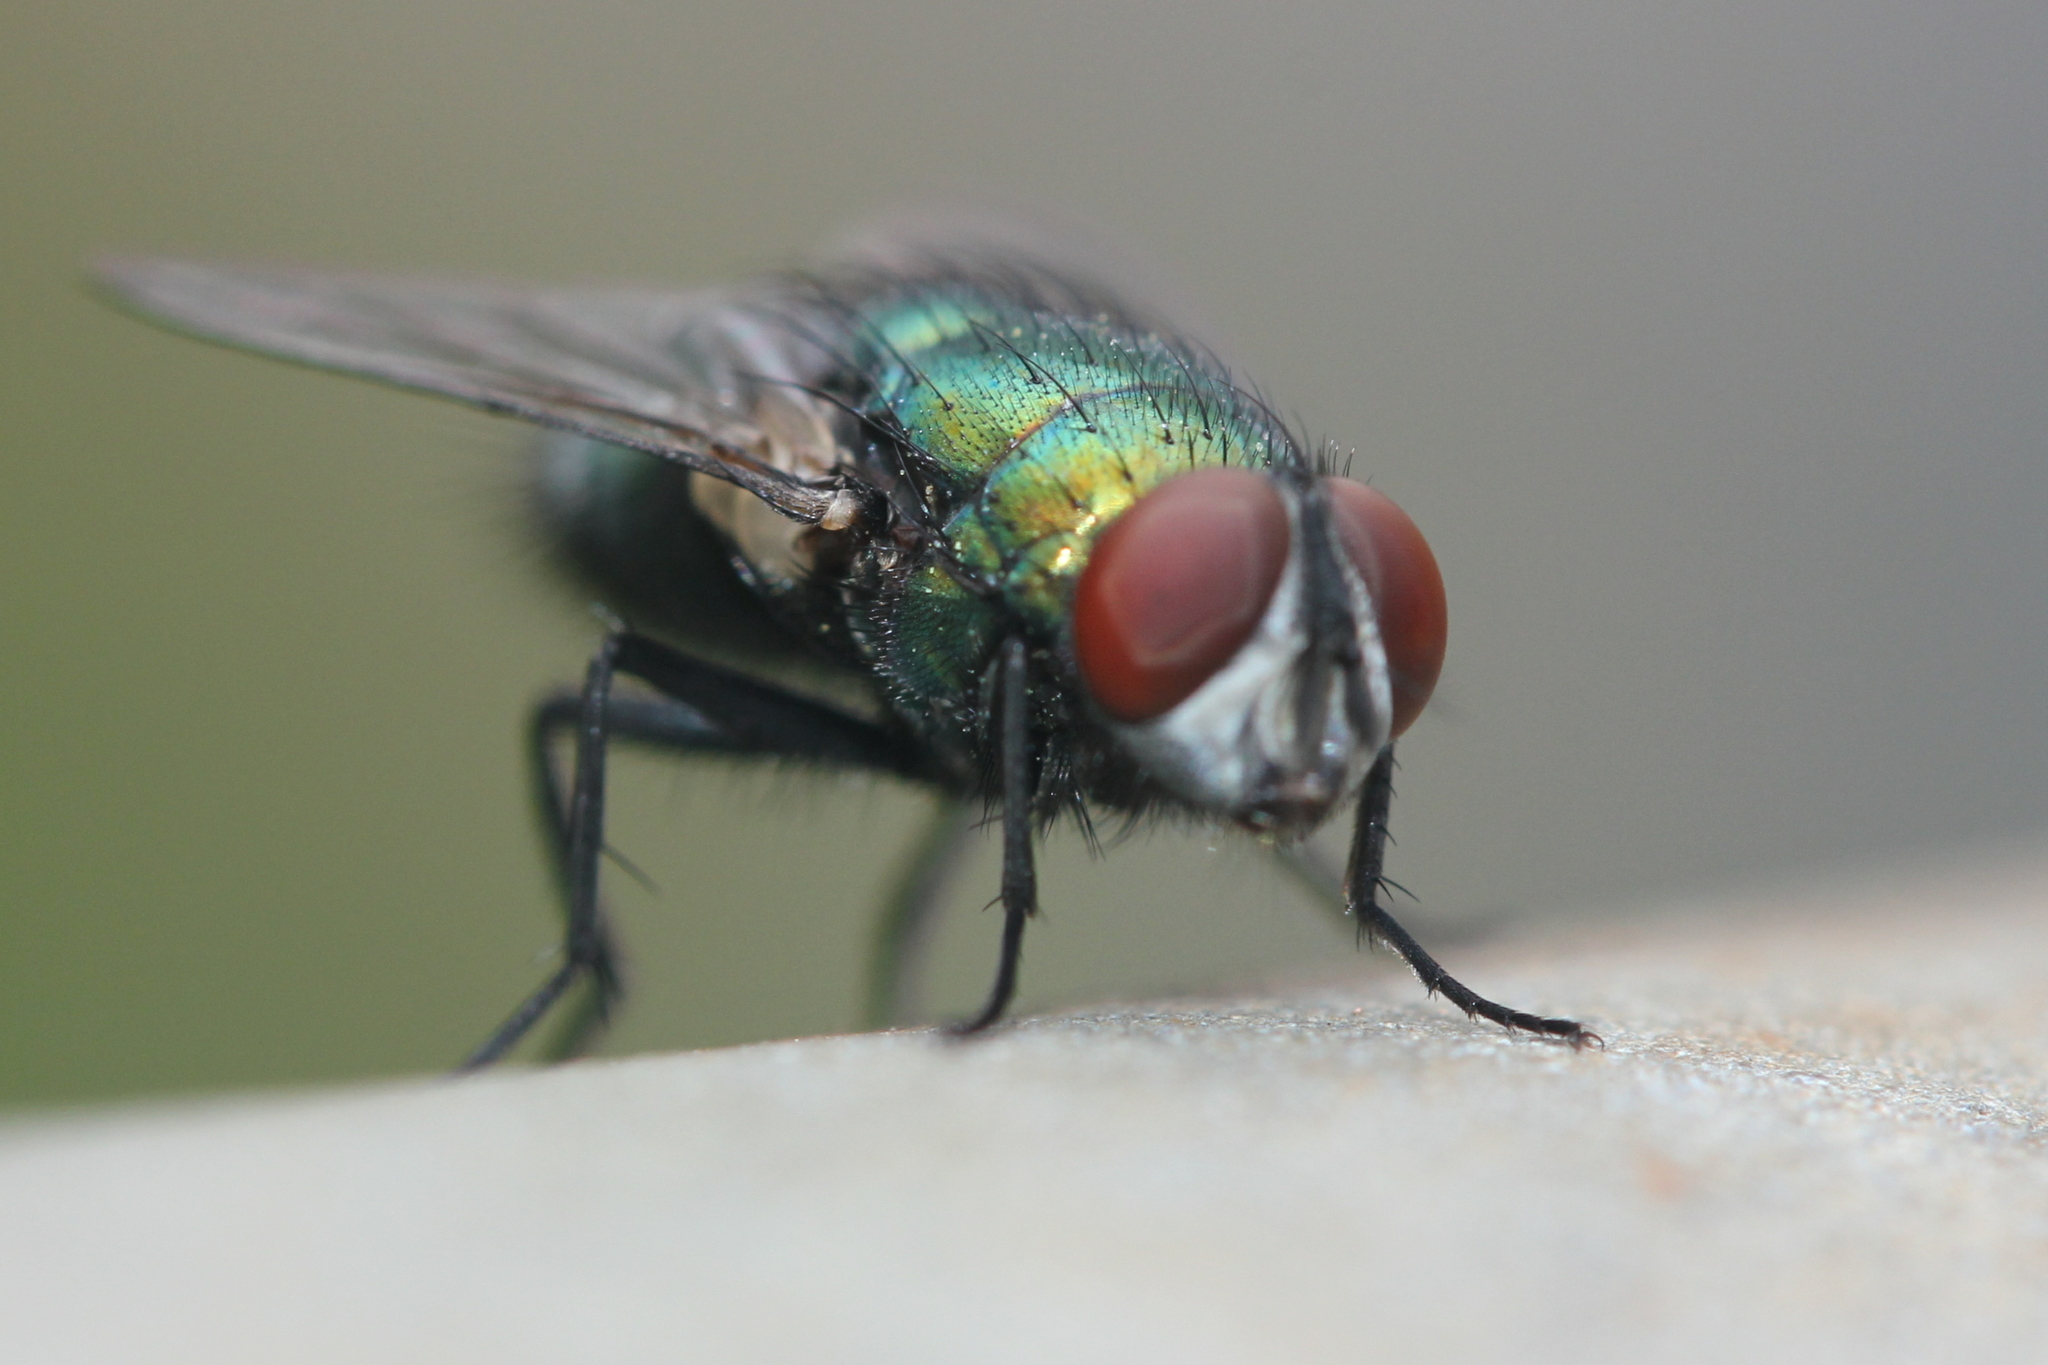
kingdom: Animalia
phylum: Arthropoda
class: Insecta
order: Diptera
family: Calliphoridae
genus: Lucilia
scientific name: Lucilia sericata
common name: Blow fly
